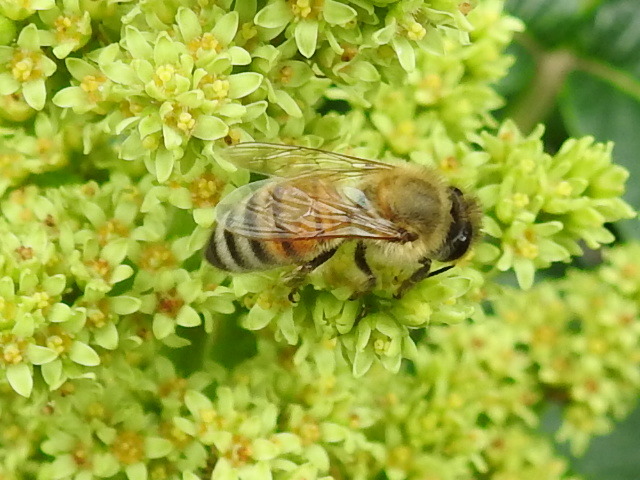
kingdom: Animalia
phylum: Arthropoda
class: Insecta
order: Hymenoptera
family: Apidae
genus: Apis
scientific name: Apis mellifera
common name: Honey bee
